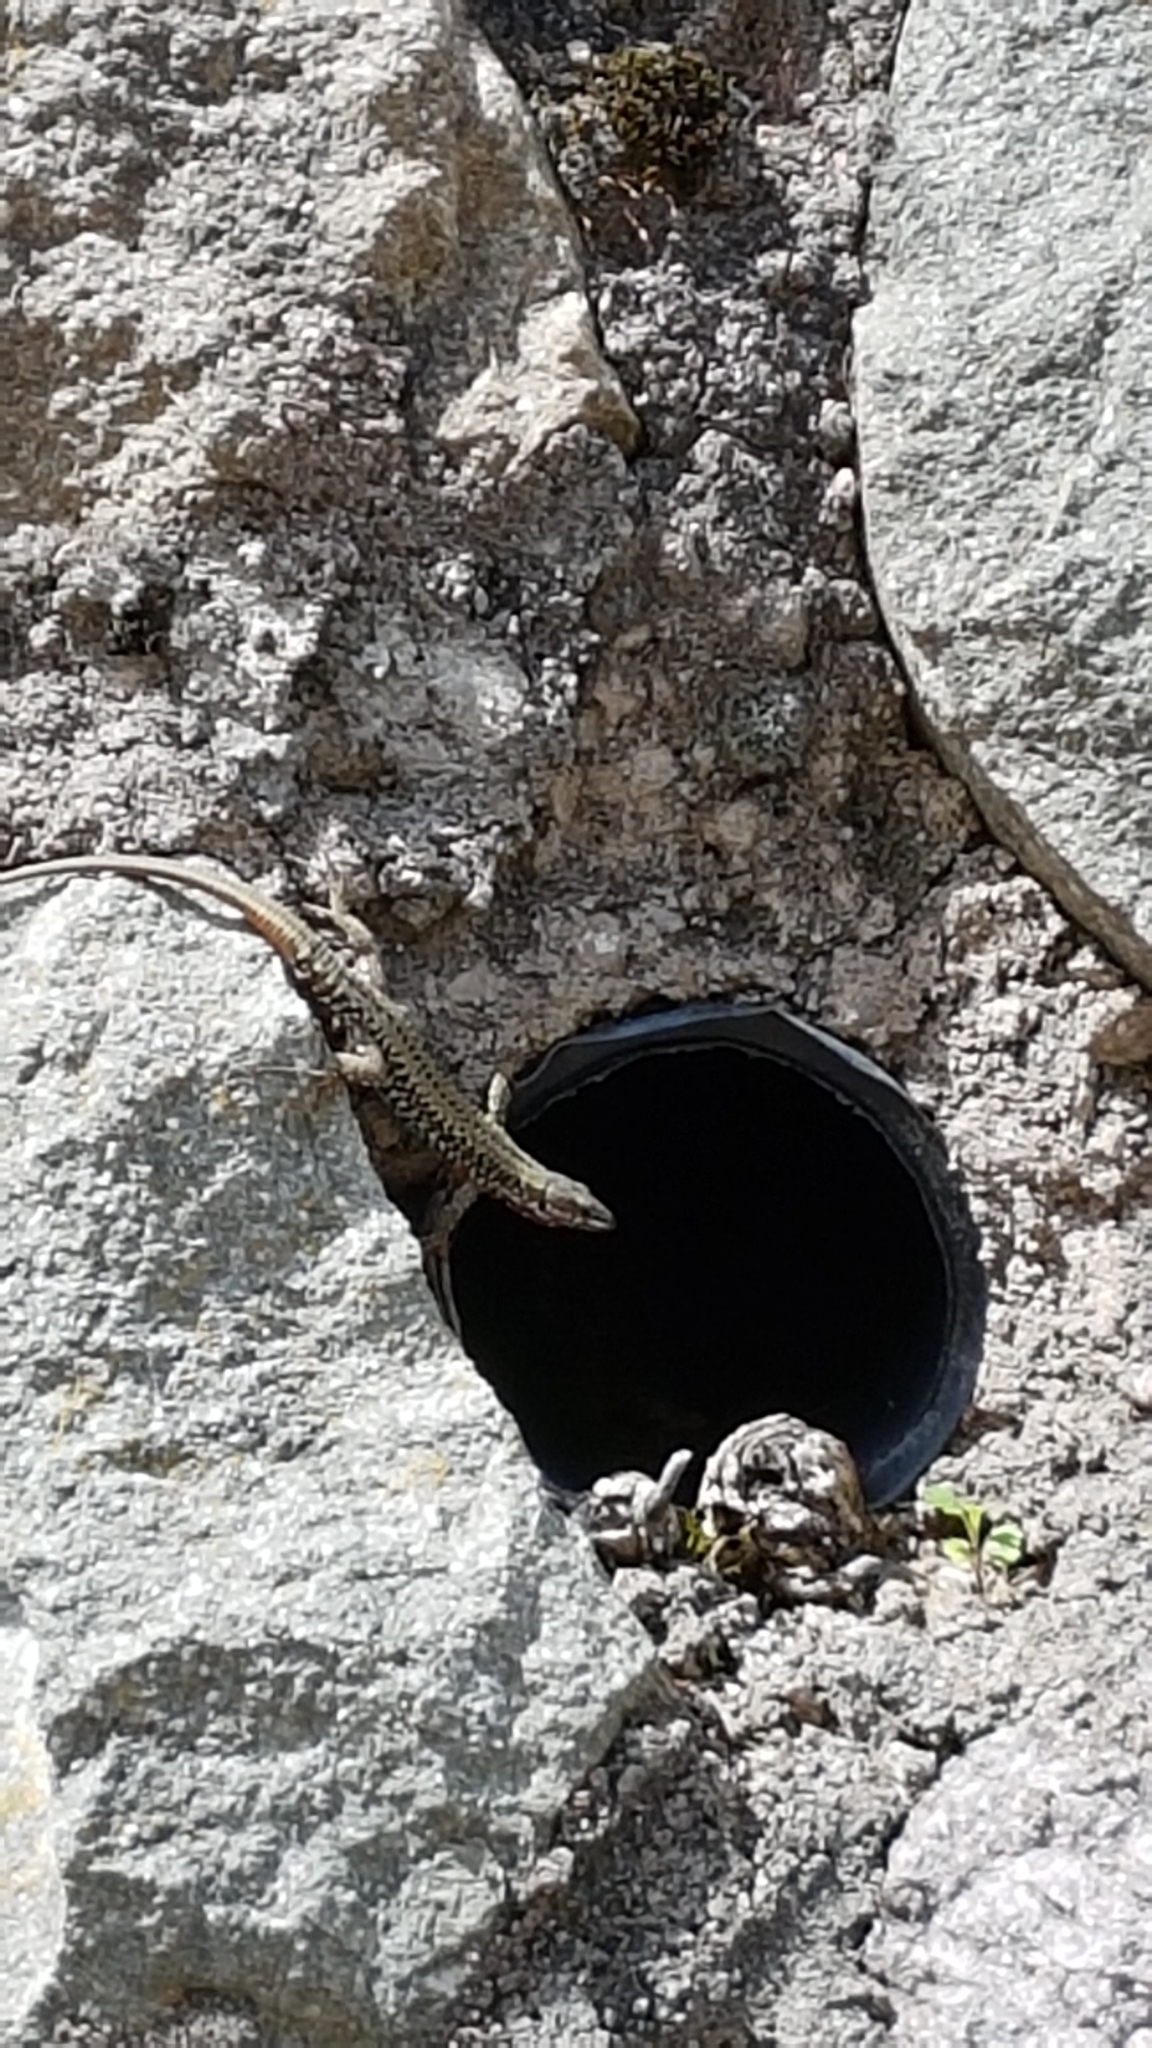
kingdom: Animalia
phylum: Chordata
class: Squamata
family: Lacertidae
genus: Podarcis
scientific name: Podarcis muralis
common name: Common wall lizard
